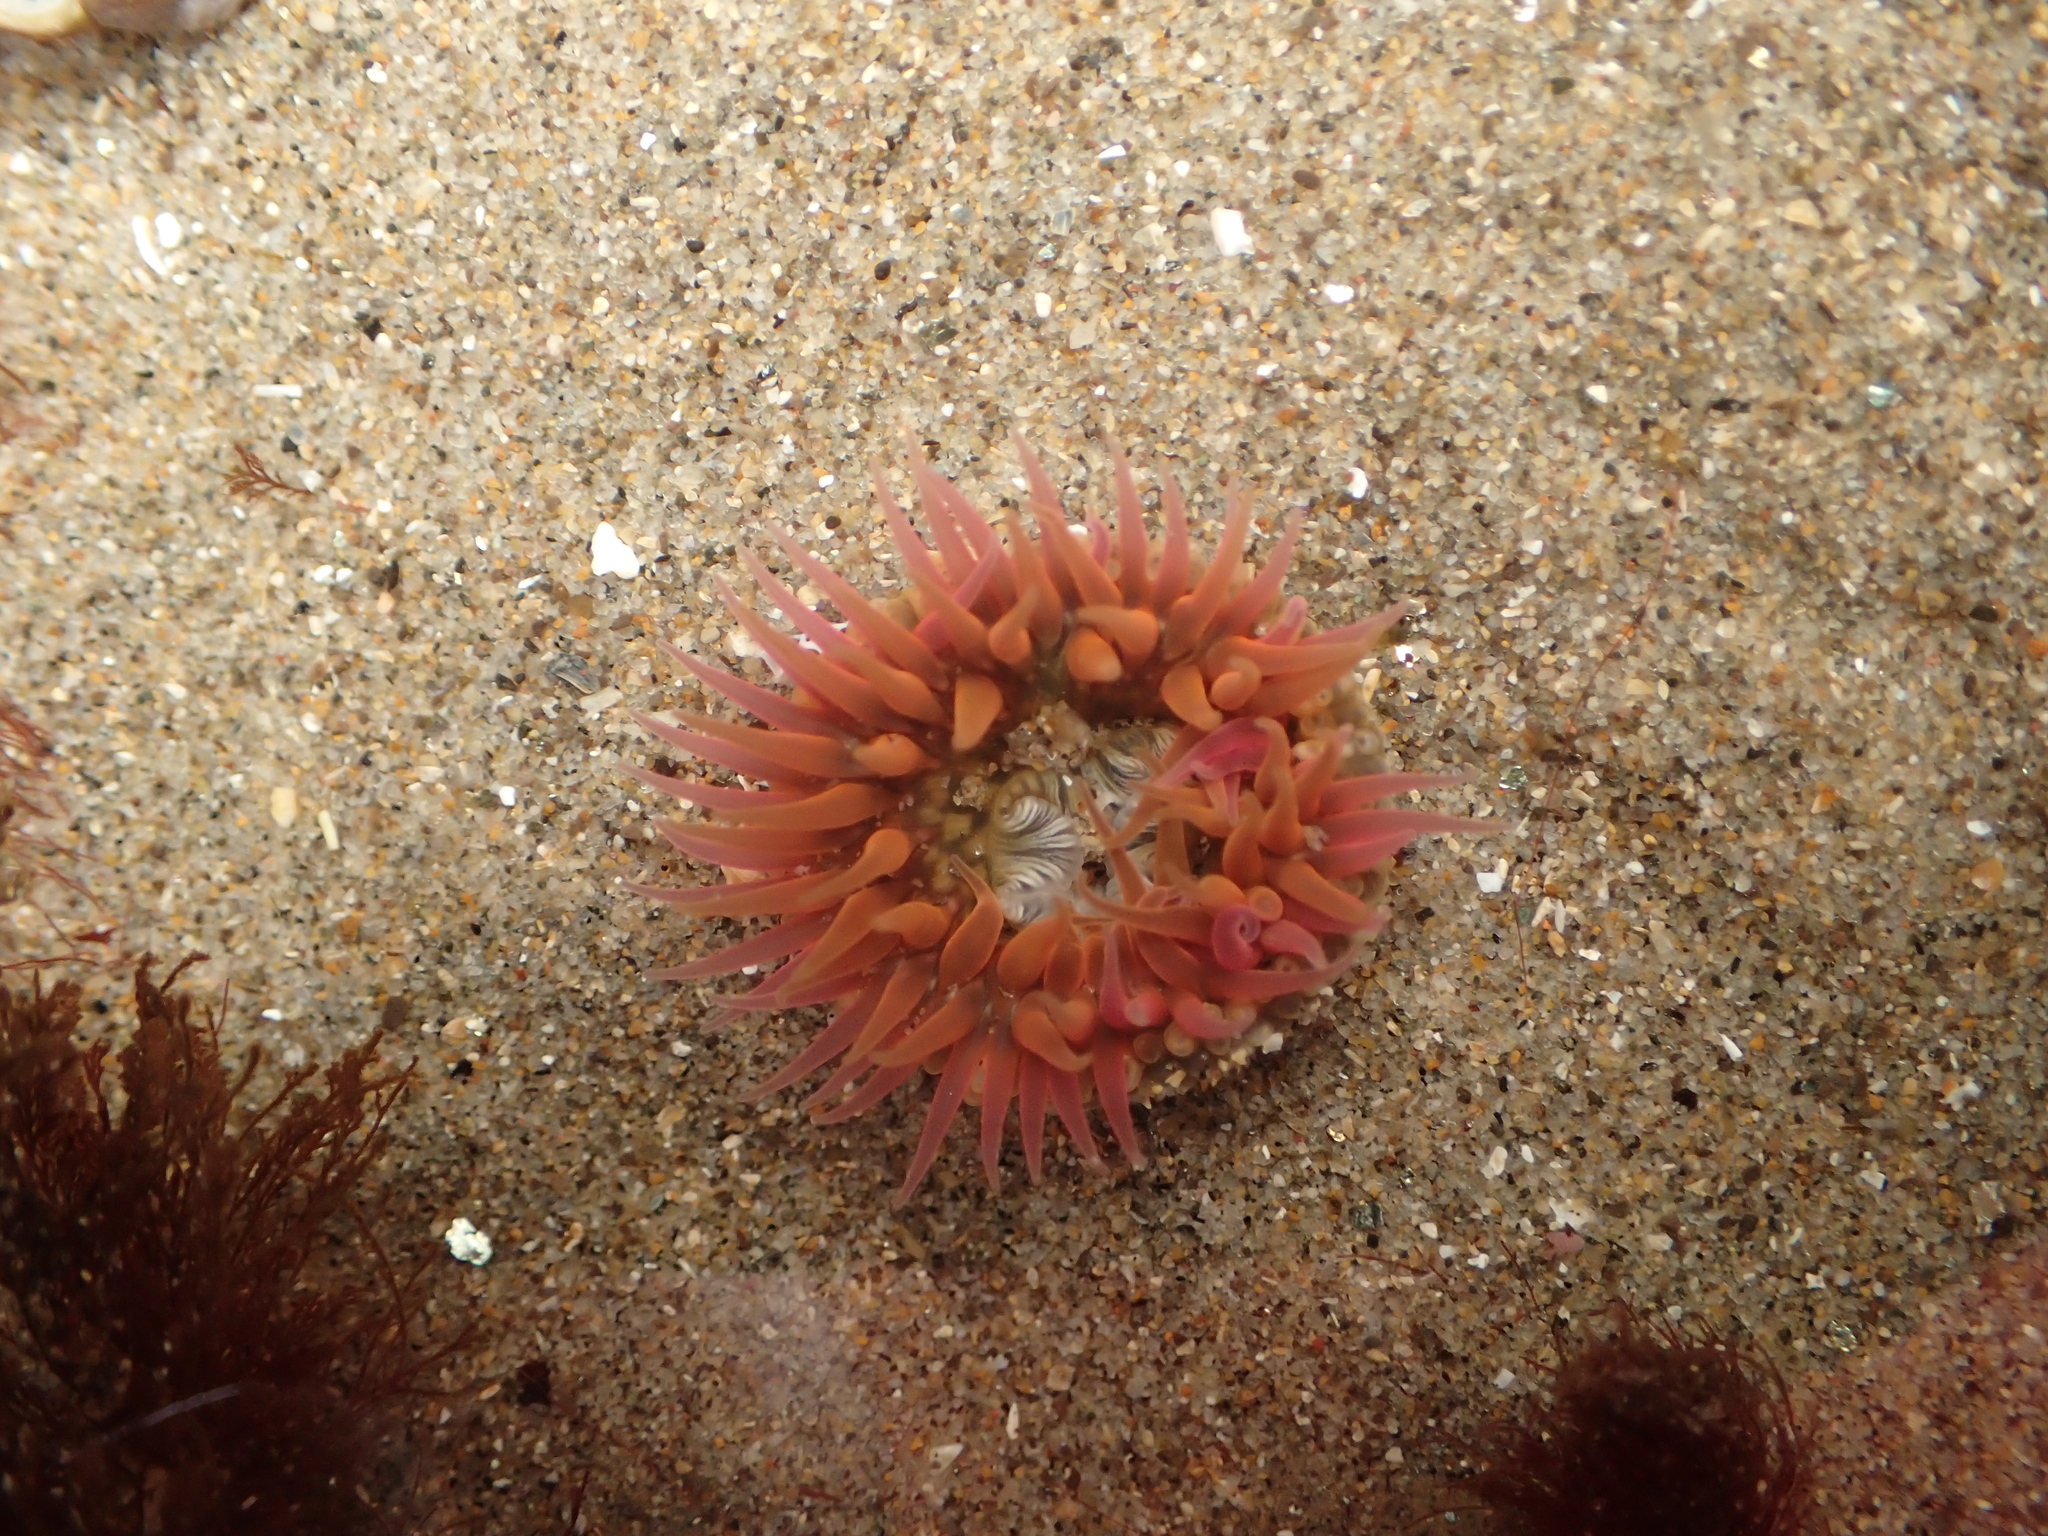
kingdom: Animalia
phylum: Cnidaria
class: Anthozoa
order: Actiniaria
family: Actiniidae
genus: Anthopleura
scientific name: Anthopleura artemisia
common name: Buried sea anemone
